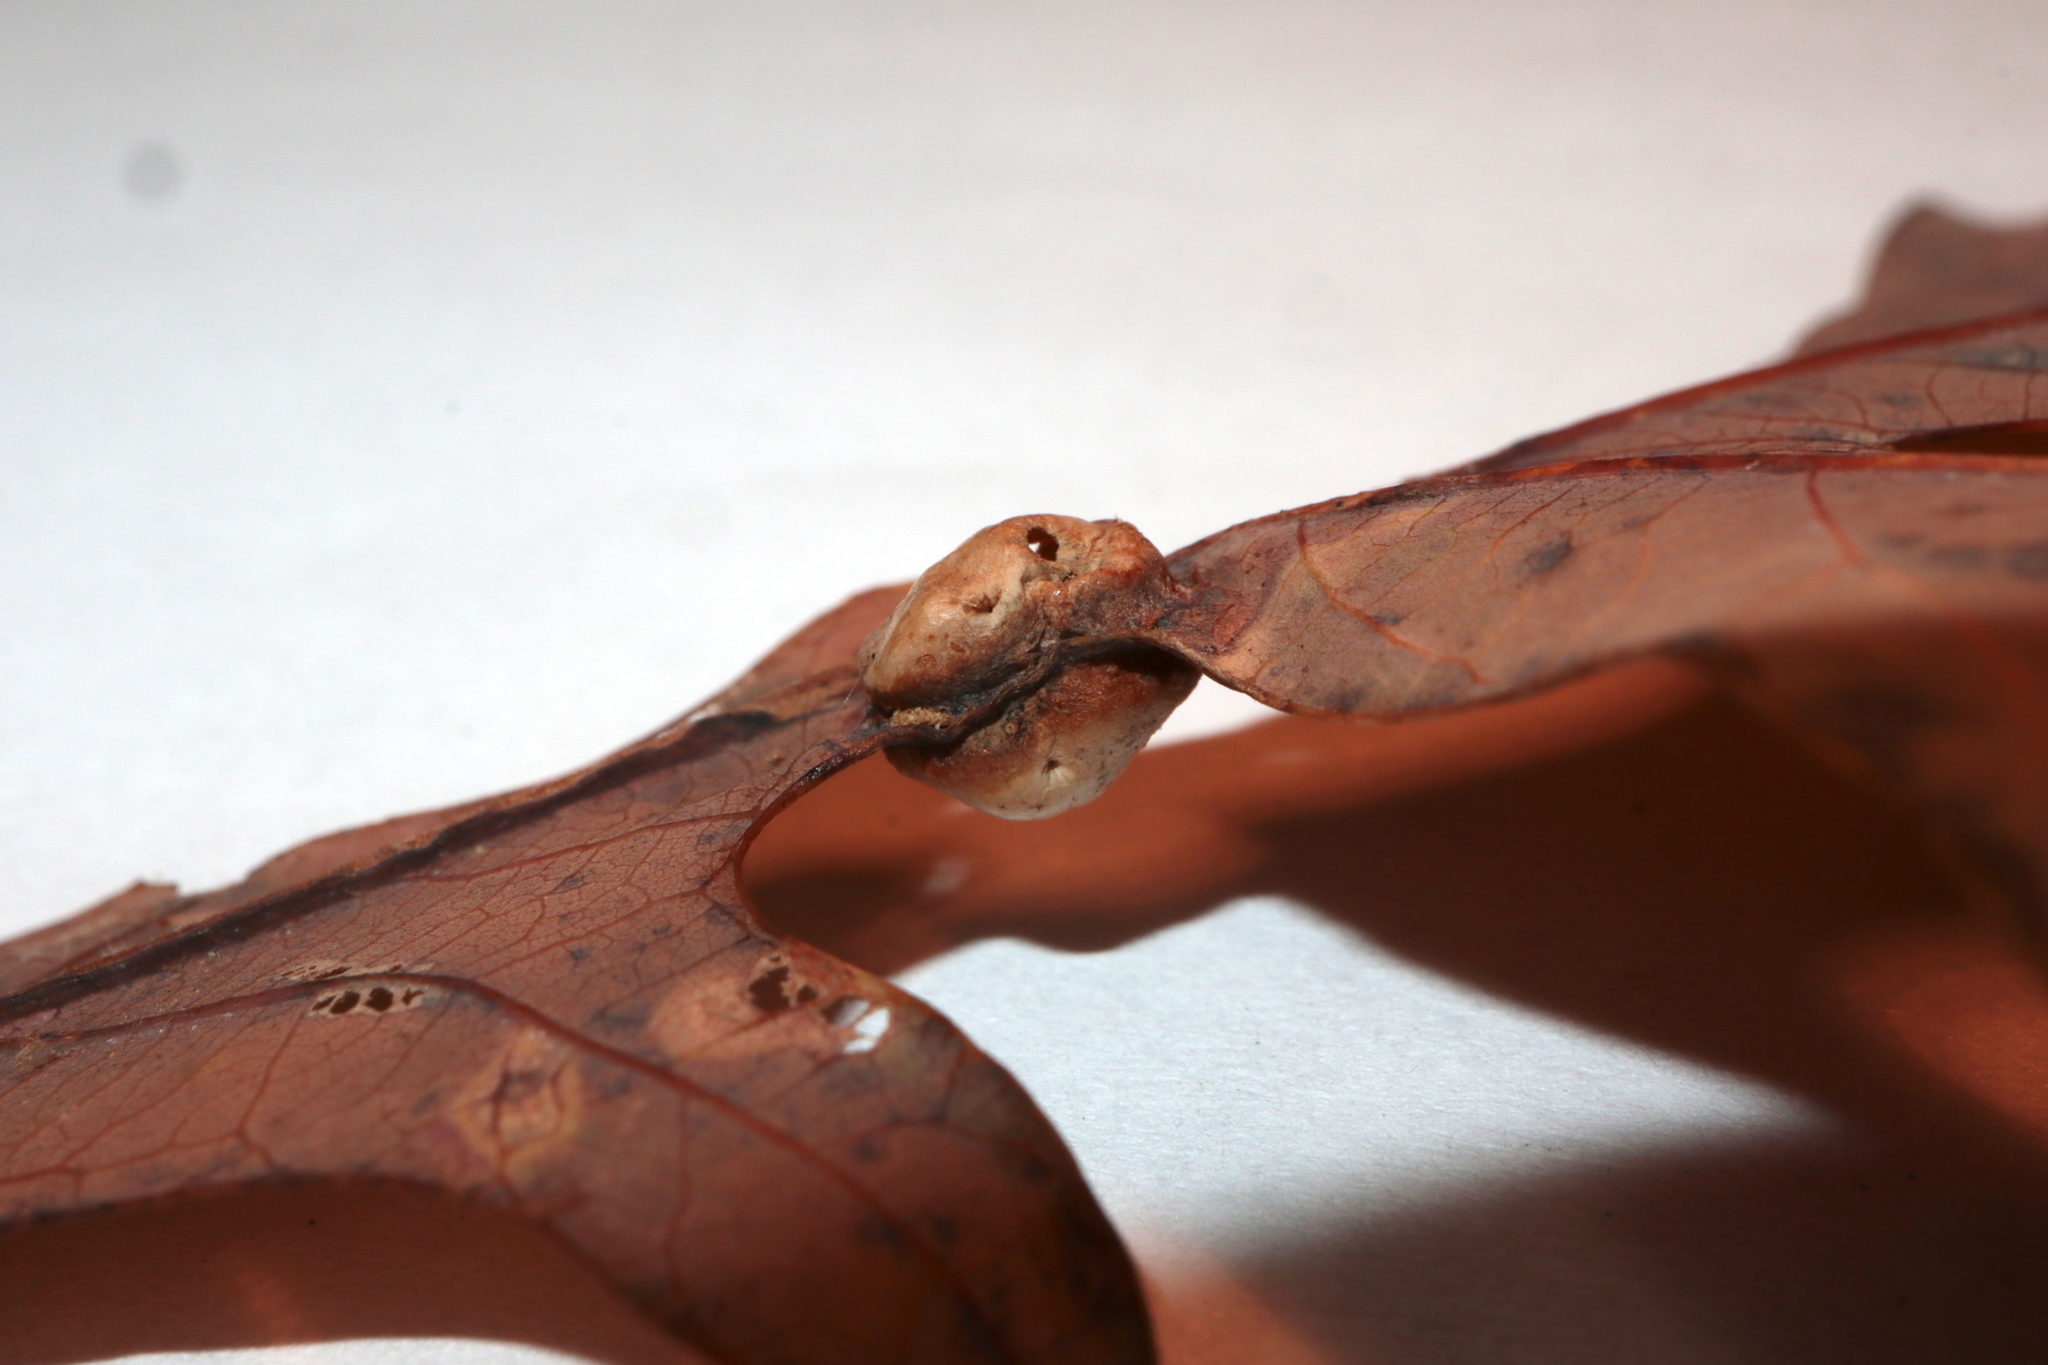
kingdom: Animalia
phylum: Arthropoda
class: Insecta
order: Hymenoptera
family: Cynipidae
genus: Callirhytis
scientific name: Callirhytis
